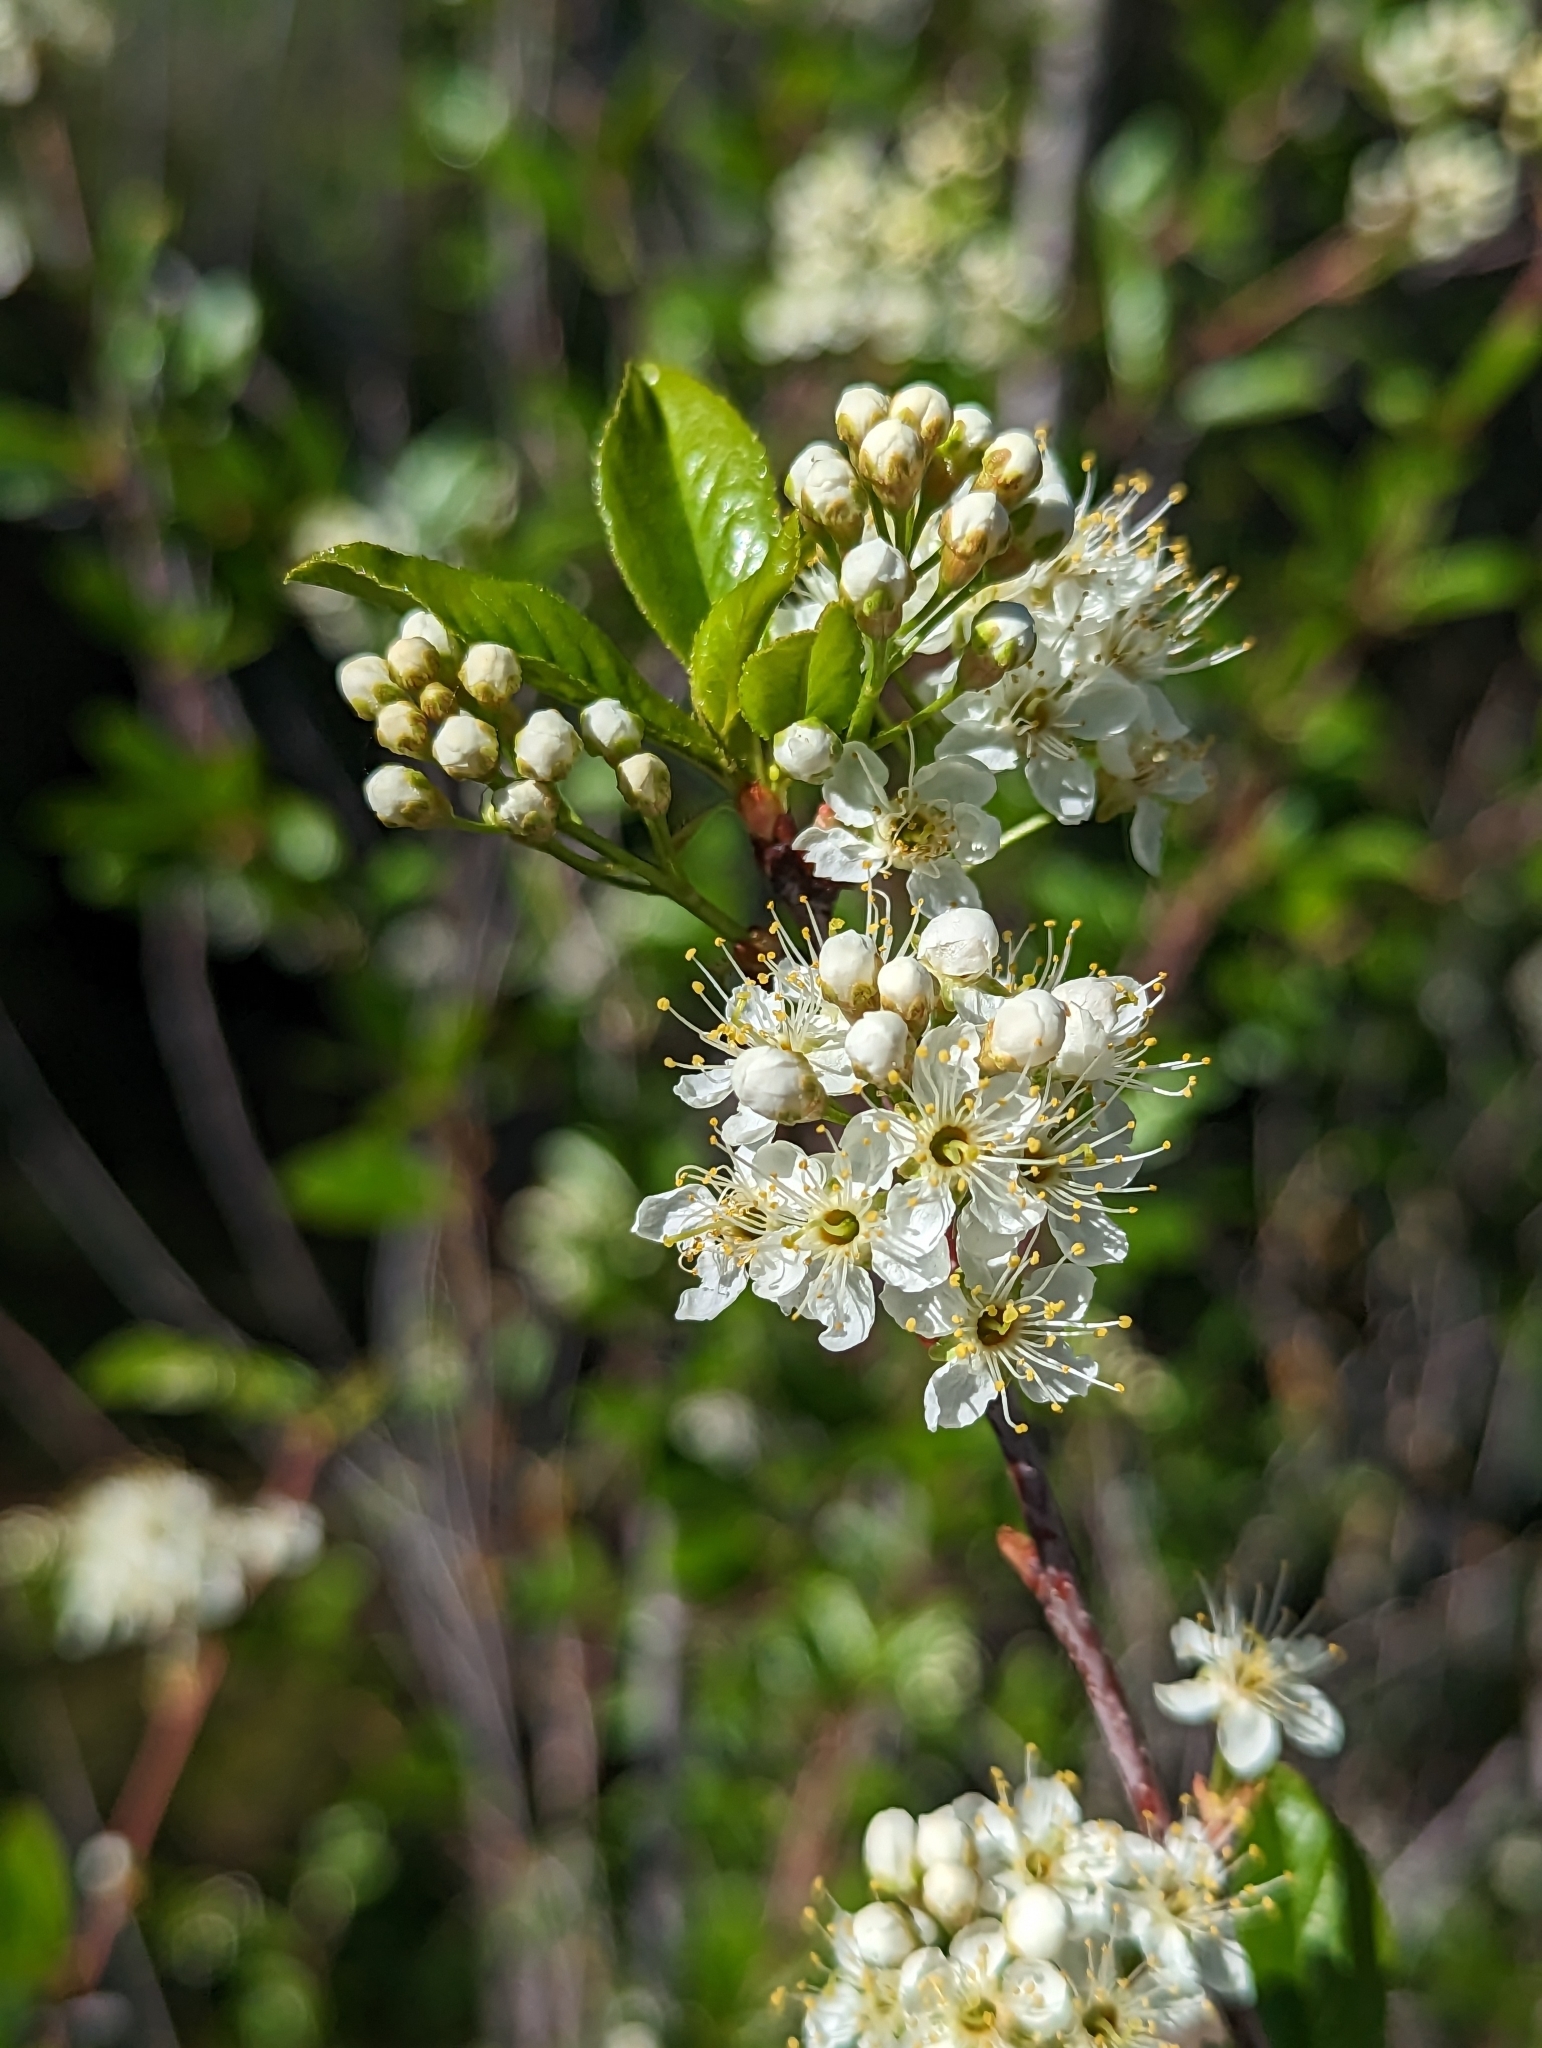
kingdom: Plantae
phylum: Tracheophyta
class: Magnoliopsida
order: Rosales
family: Rosaceae
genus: Prunus
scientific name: Prunus emarginata
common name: Bitter cherry
